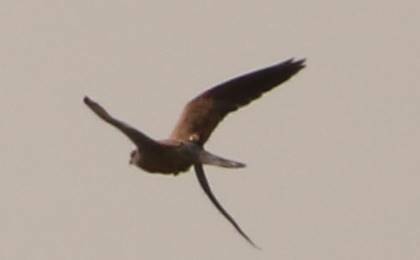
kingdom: Animalia
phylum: Chordata
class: Aves
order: Falconiformes
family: Falconidae
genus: Falco
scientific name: Falco naumanni
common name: Lesser kestrel
